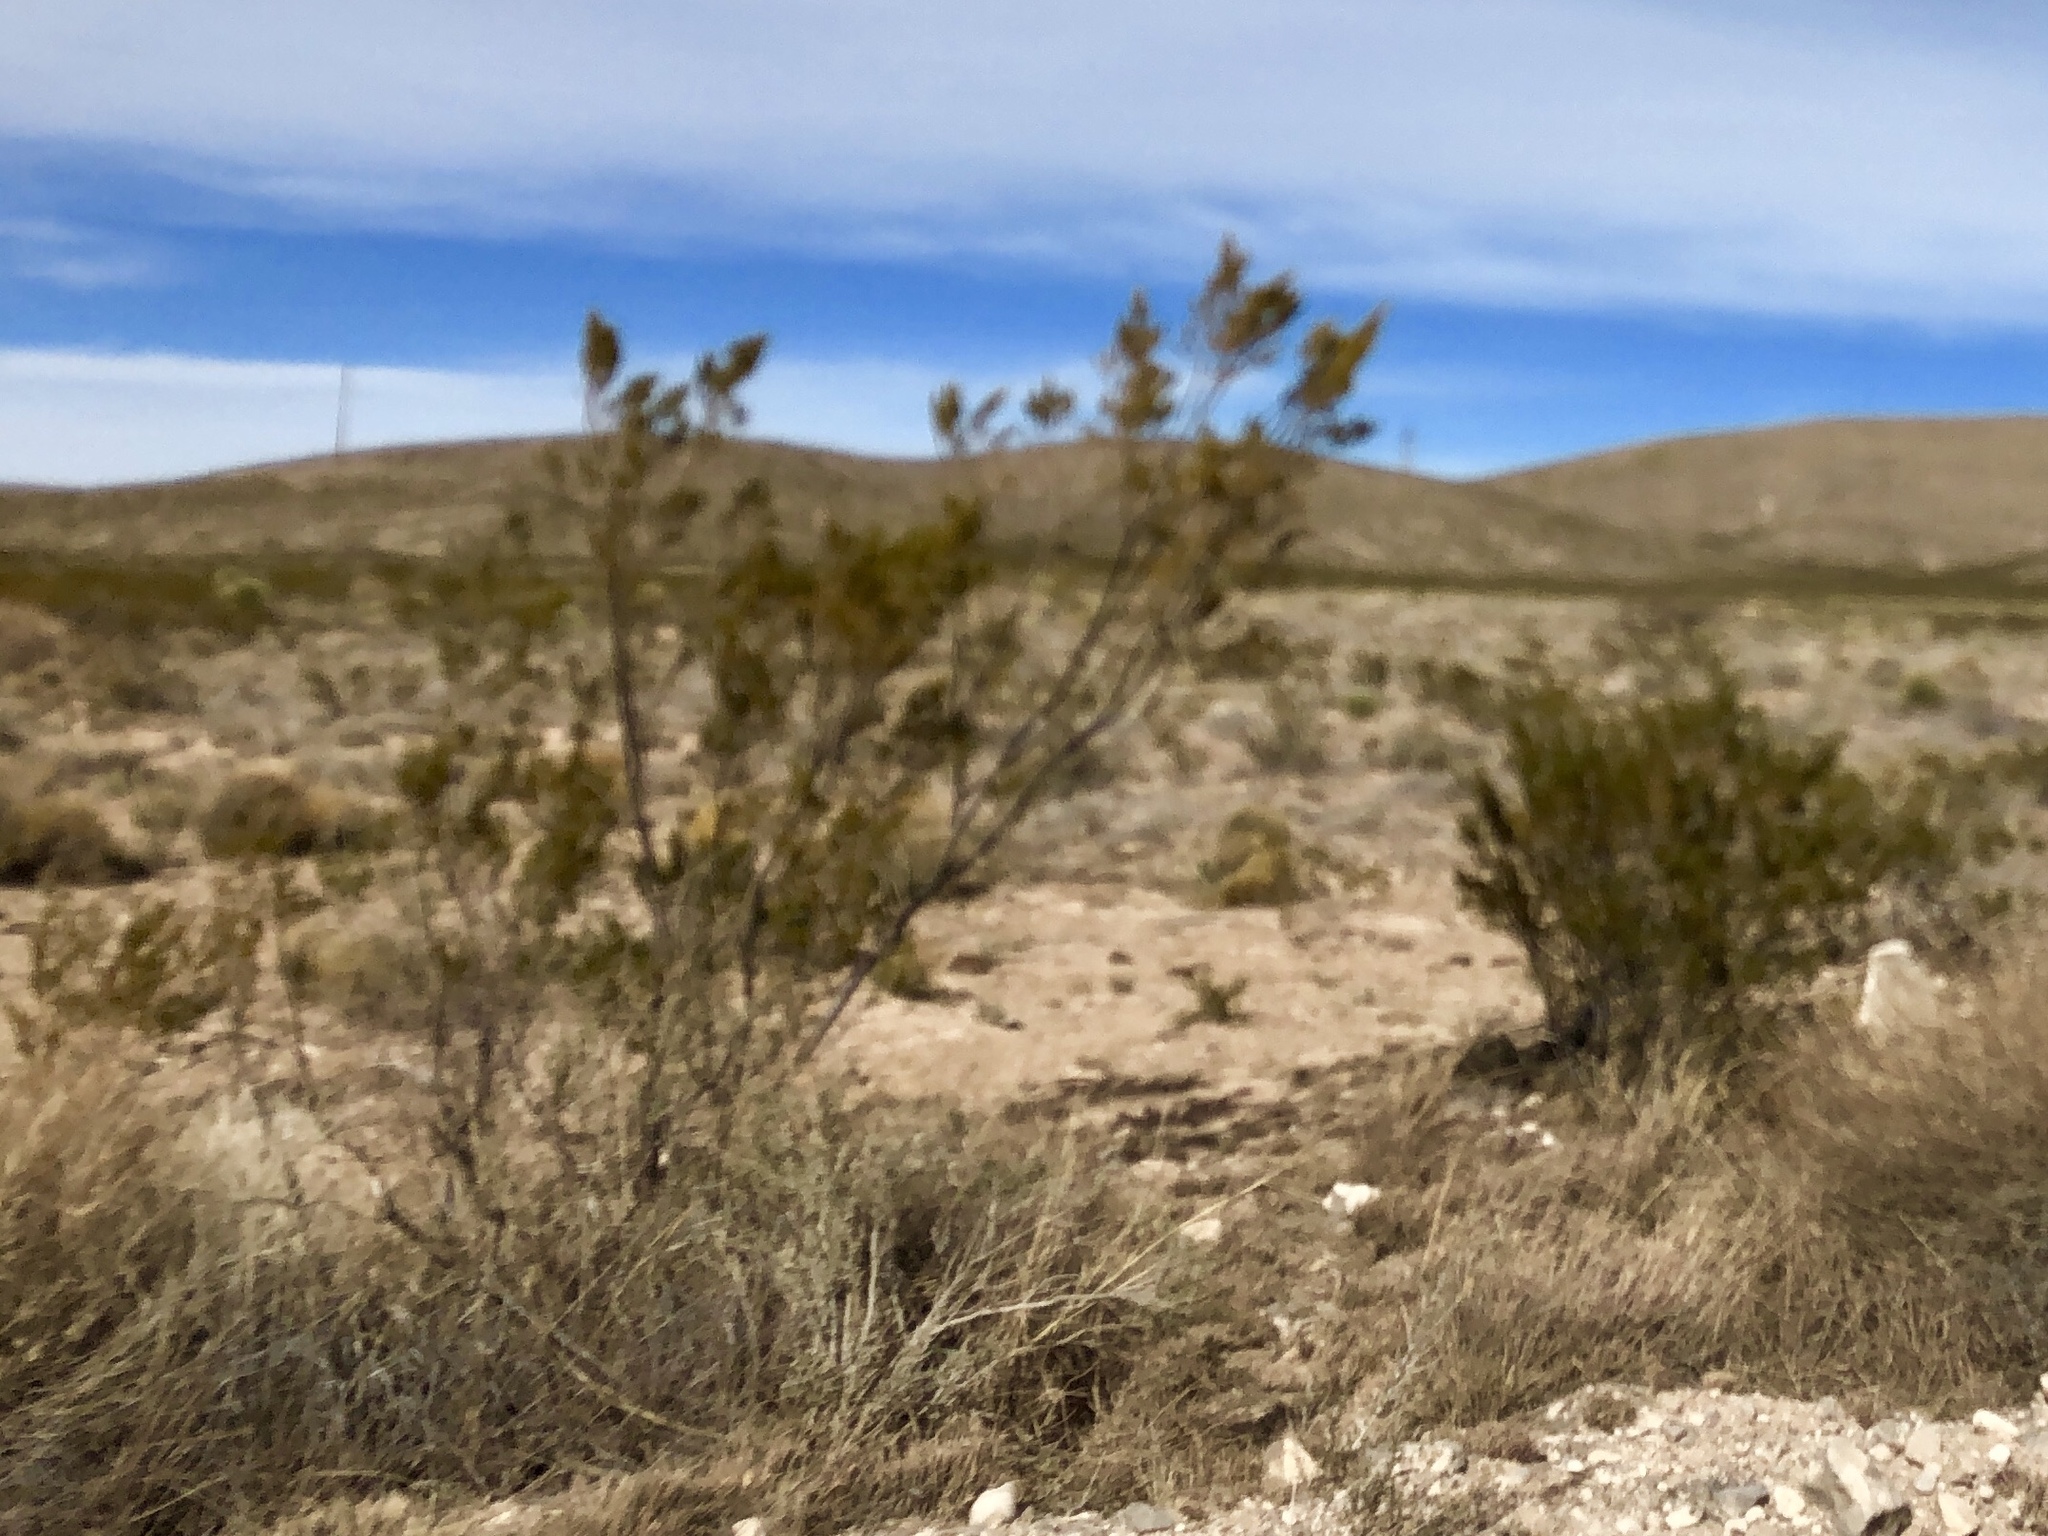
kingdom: Plantae
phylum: Tracheophyta
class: Magnoliopsida
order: Zygophyllales
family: Zygophyllaceae
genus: Larrea
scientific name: Larrea tridentata
